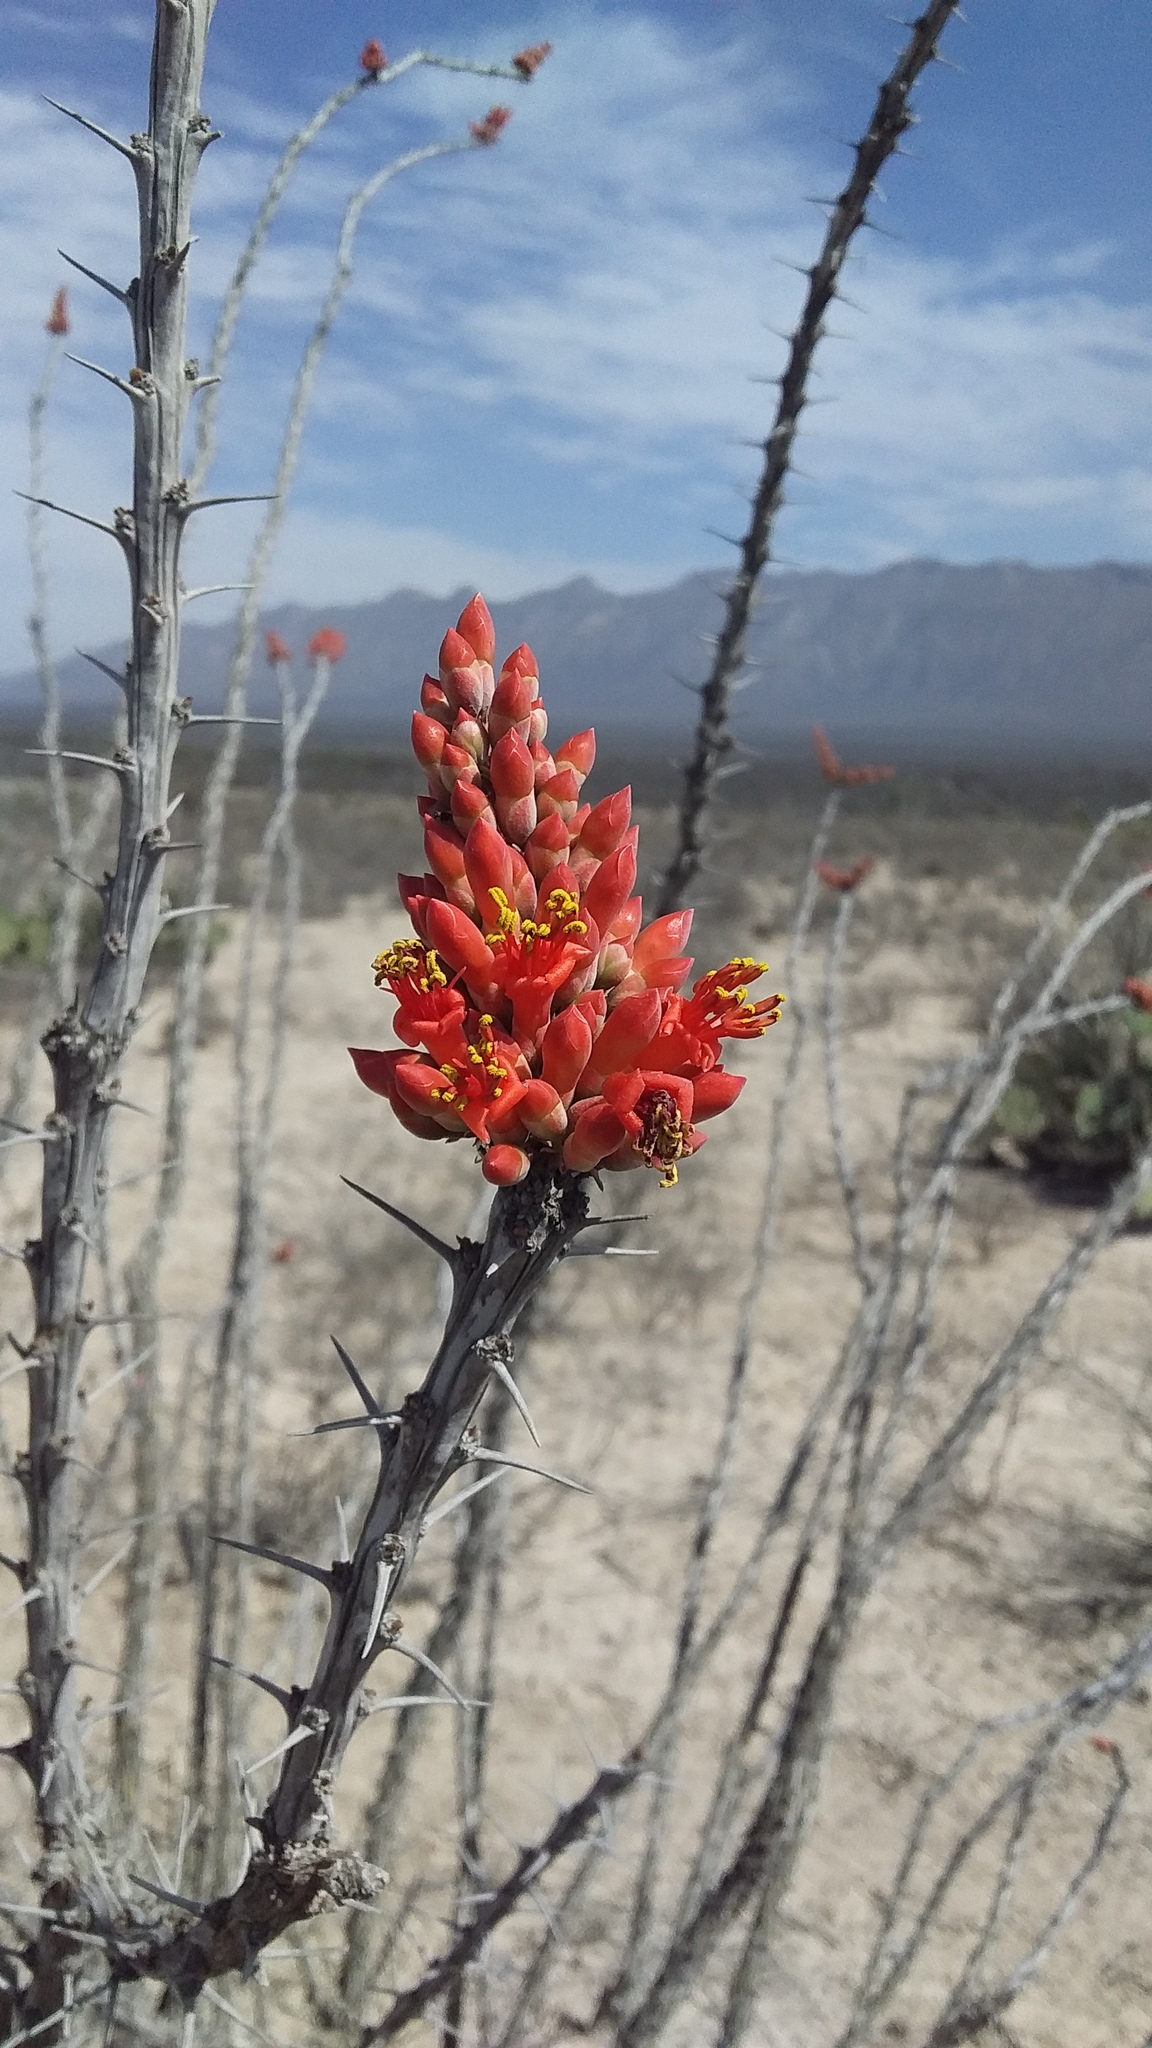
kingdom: Plantae
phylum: Tracheophyta
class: Magnoliopsida
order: Ericales
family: Fouquieriaceae
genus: Fouquieria
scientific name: Fouquieria splendens
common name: Vine-cactus
